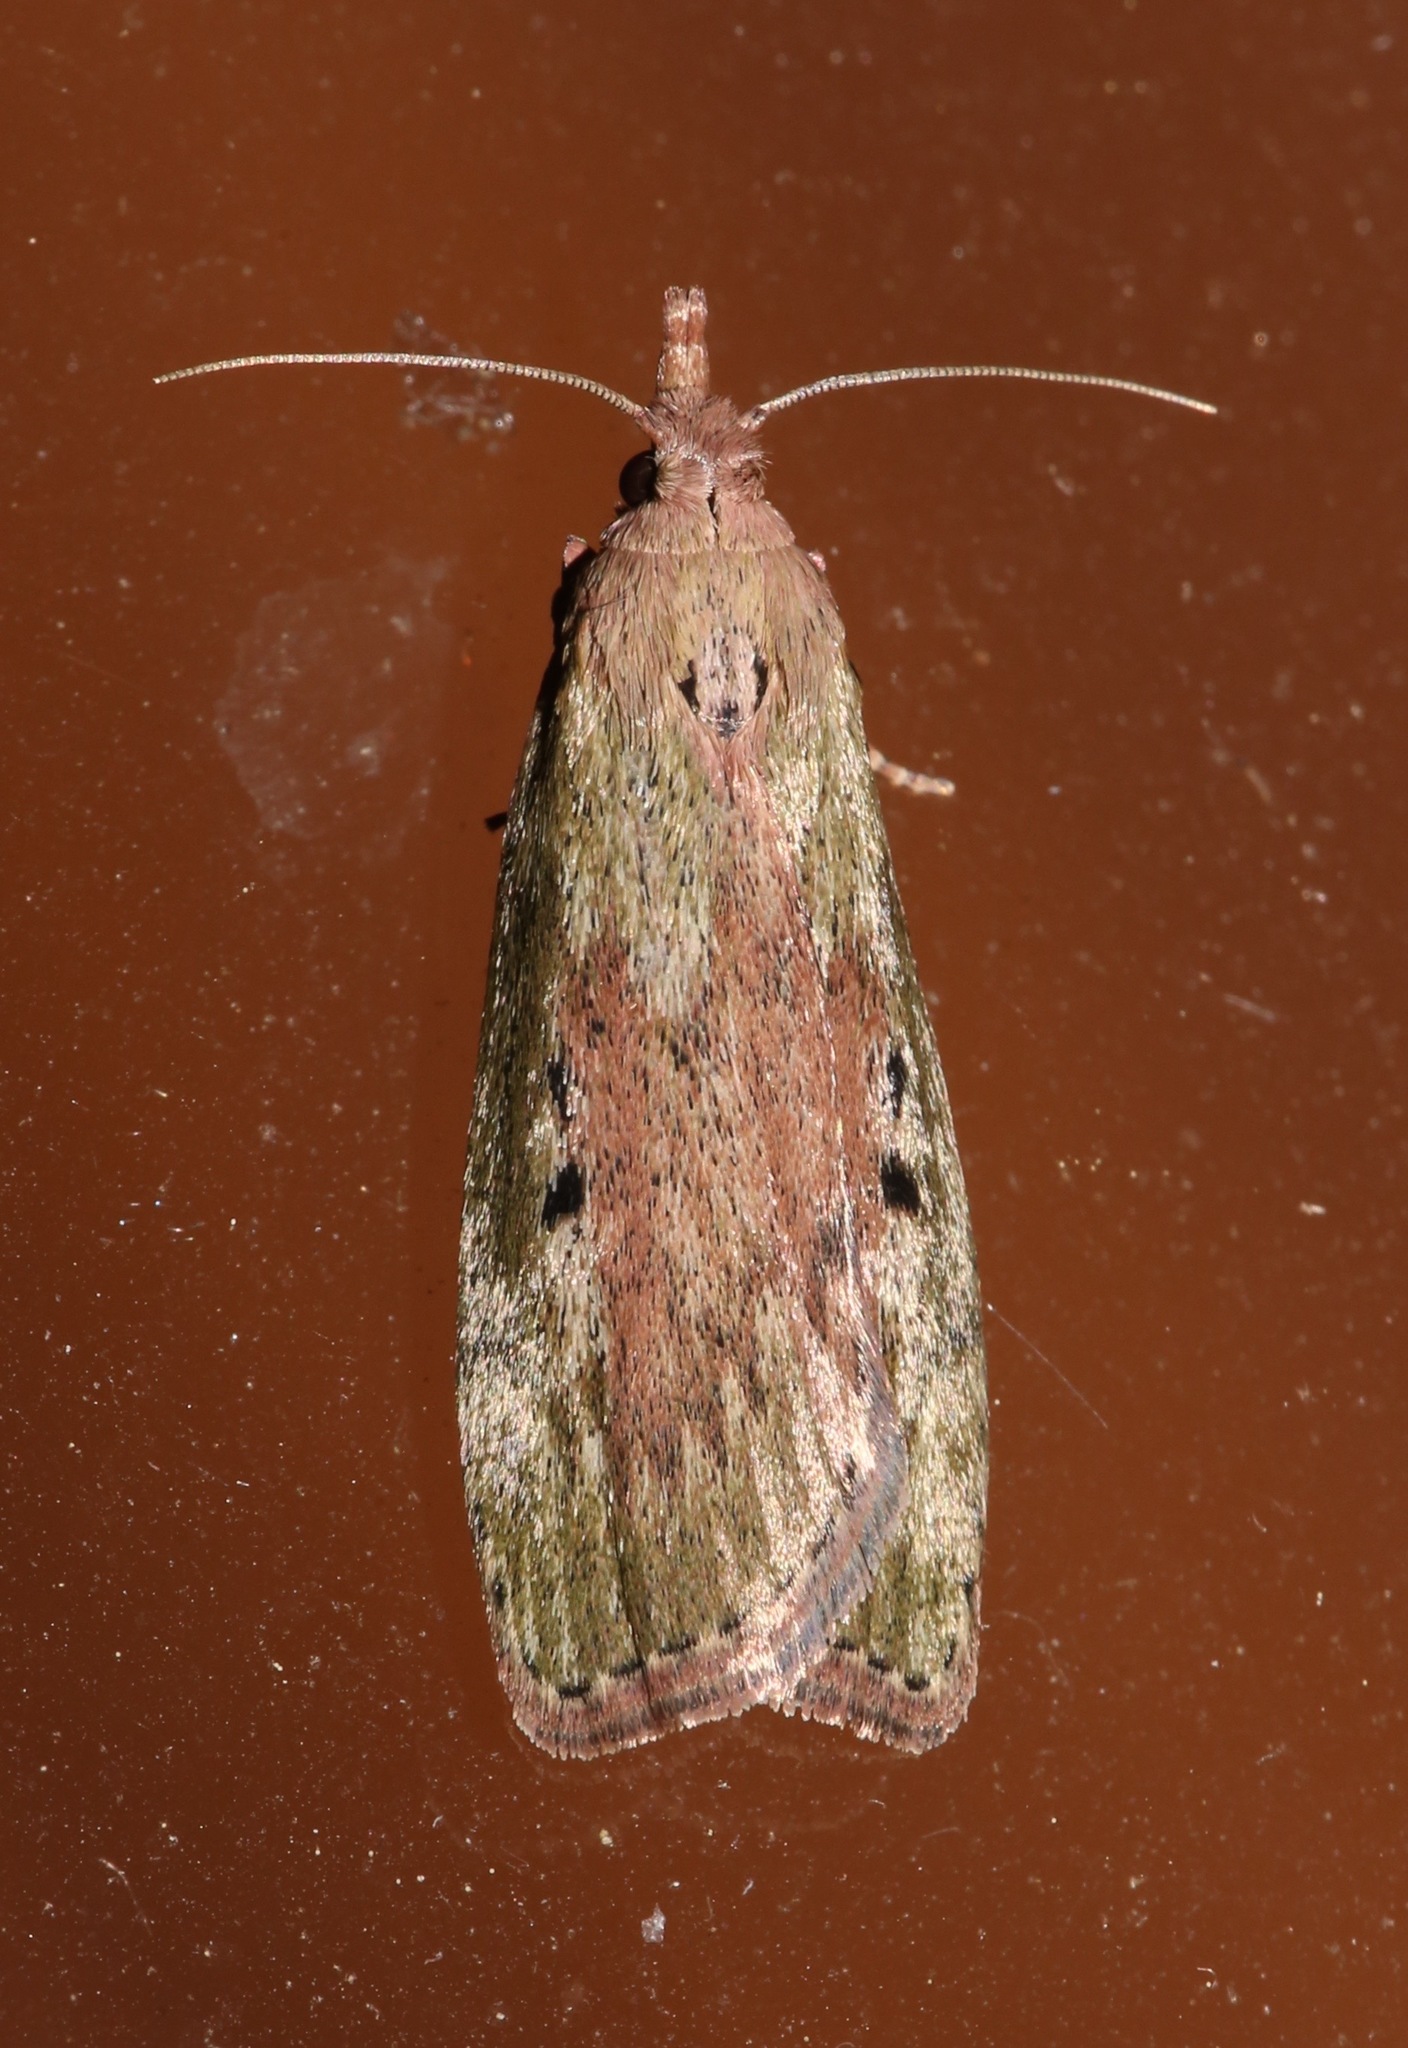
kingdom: Animalia
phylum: Arthropoda
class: Insecta
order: Lepidoptera
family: Pyralidae
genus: Aphomia
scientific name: Aphomia sociella
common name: Bee moth
